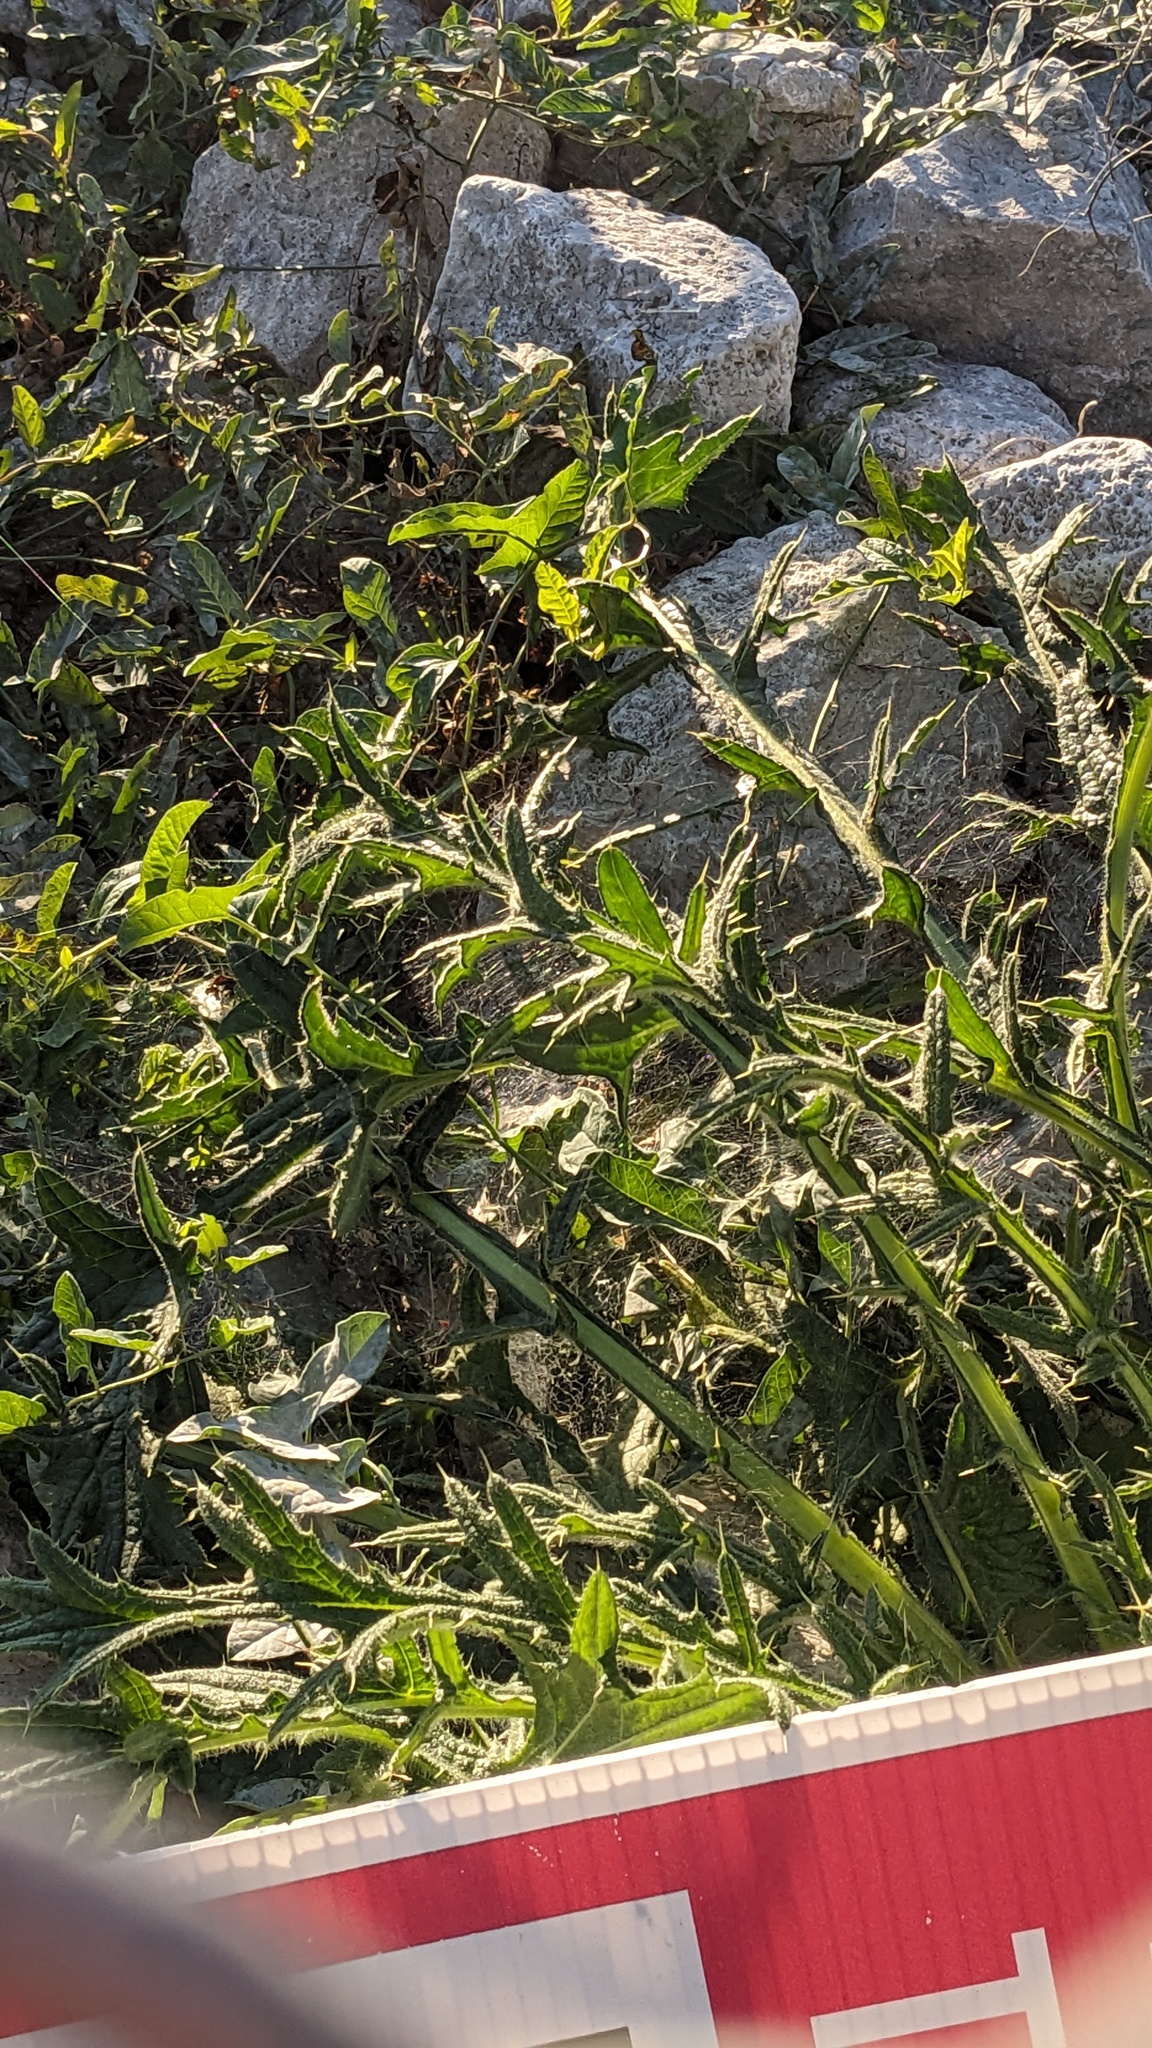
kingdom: Plantae
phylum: Tracheophyta
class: Magnoliopsida
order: Asterales
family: Asteraceae
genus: Cirsium
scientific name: Cirsium vulgare
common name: Bull thistle
